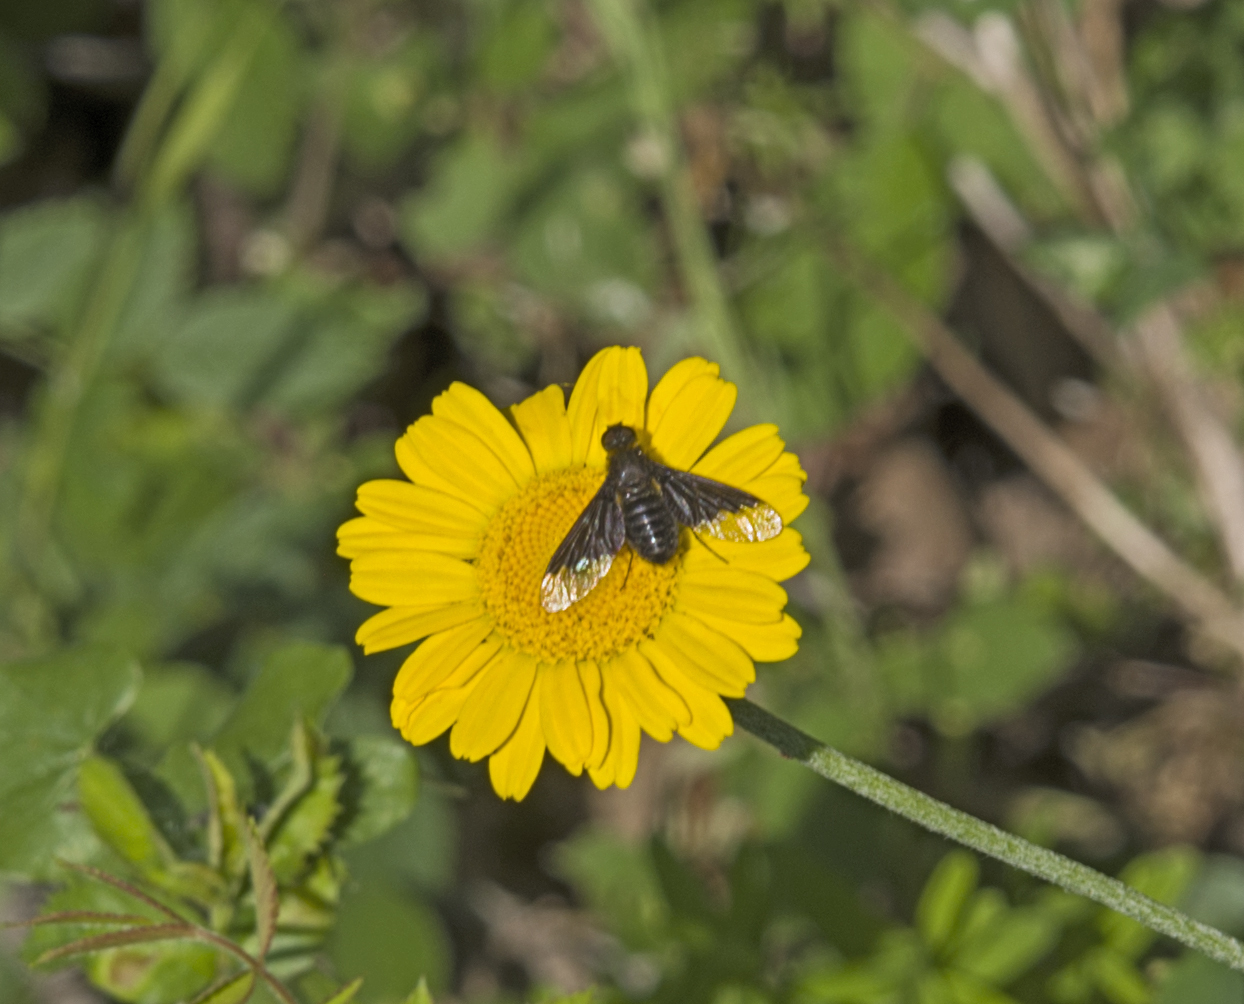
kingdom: Animalia
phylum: Arthropoda
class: Insecta
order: Diptera
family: Bombyliidae
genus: Hemipenthes
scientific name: Hemipenthes morio
